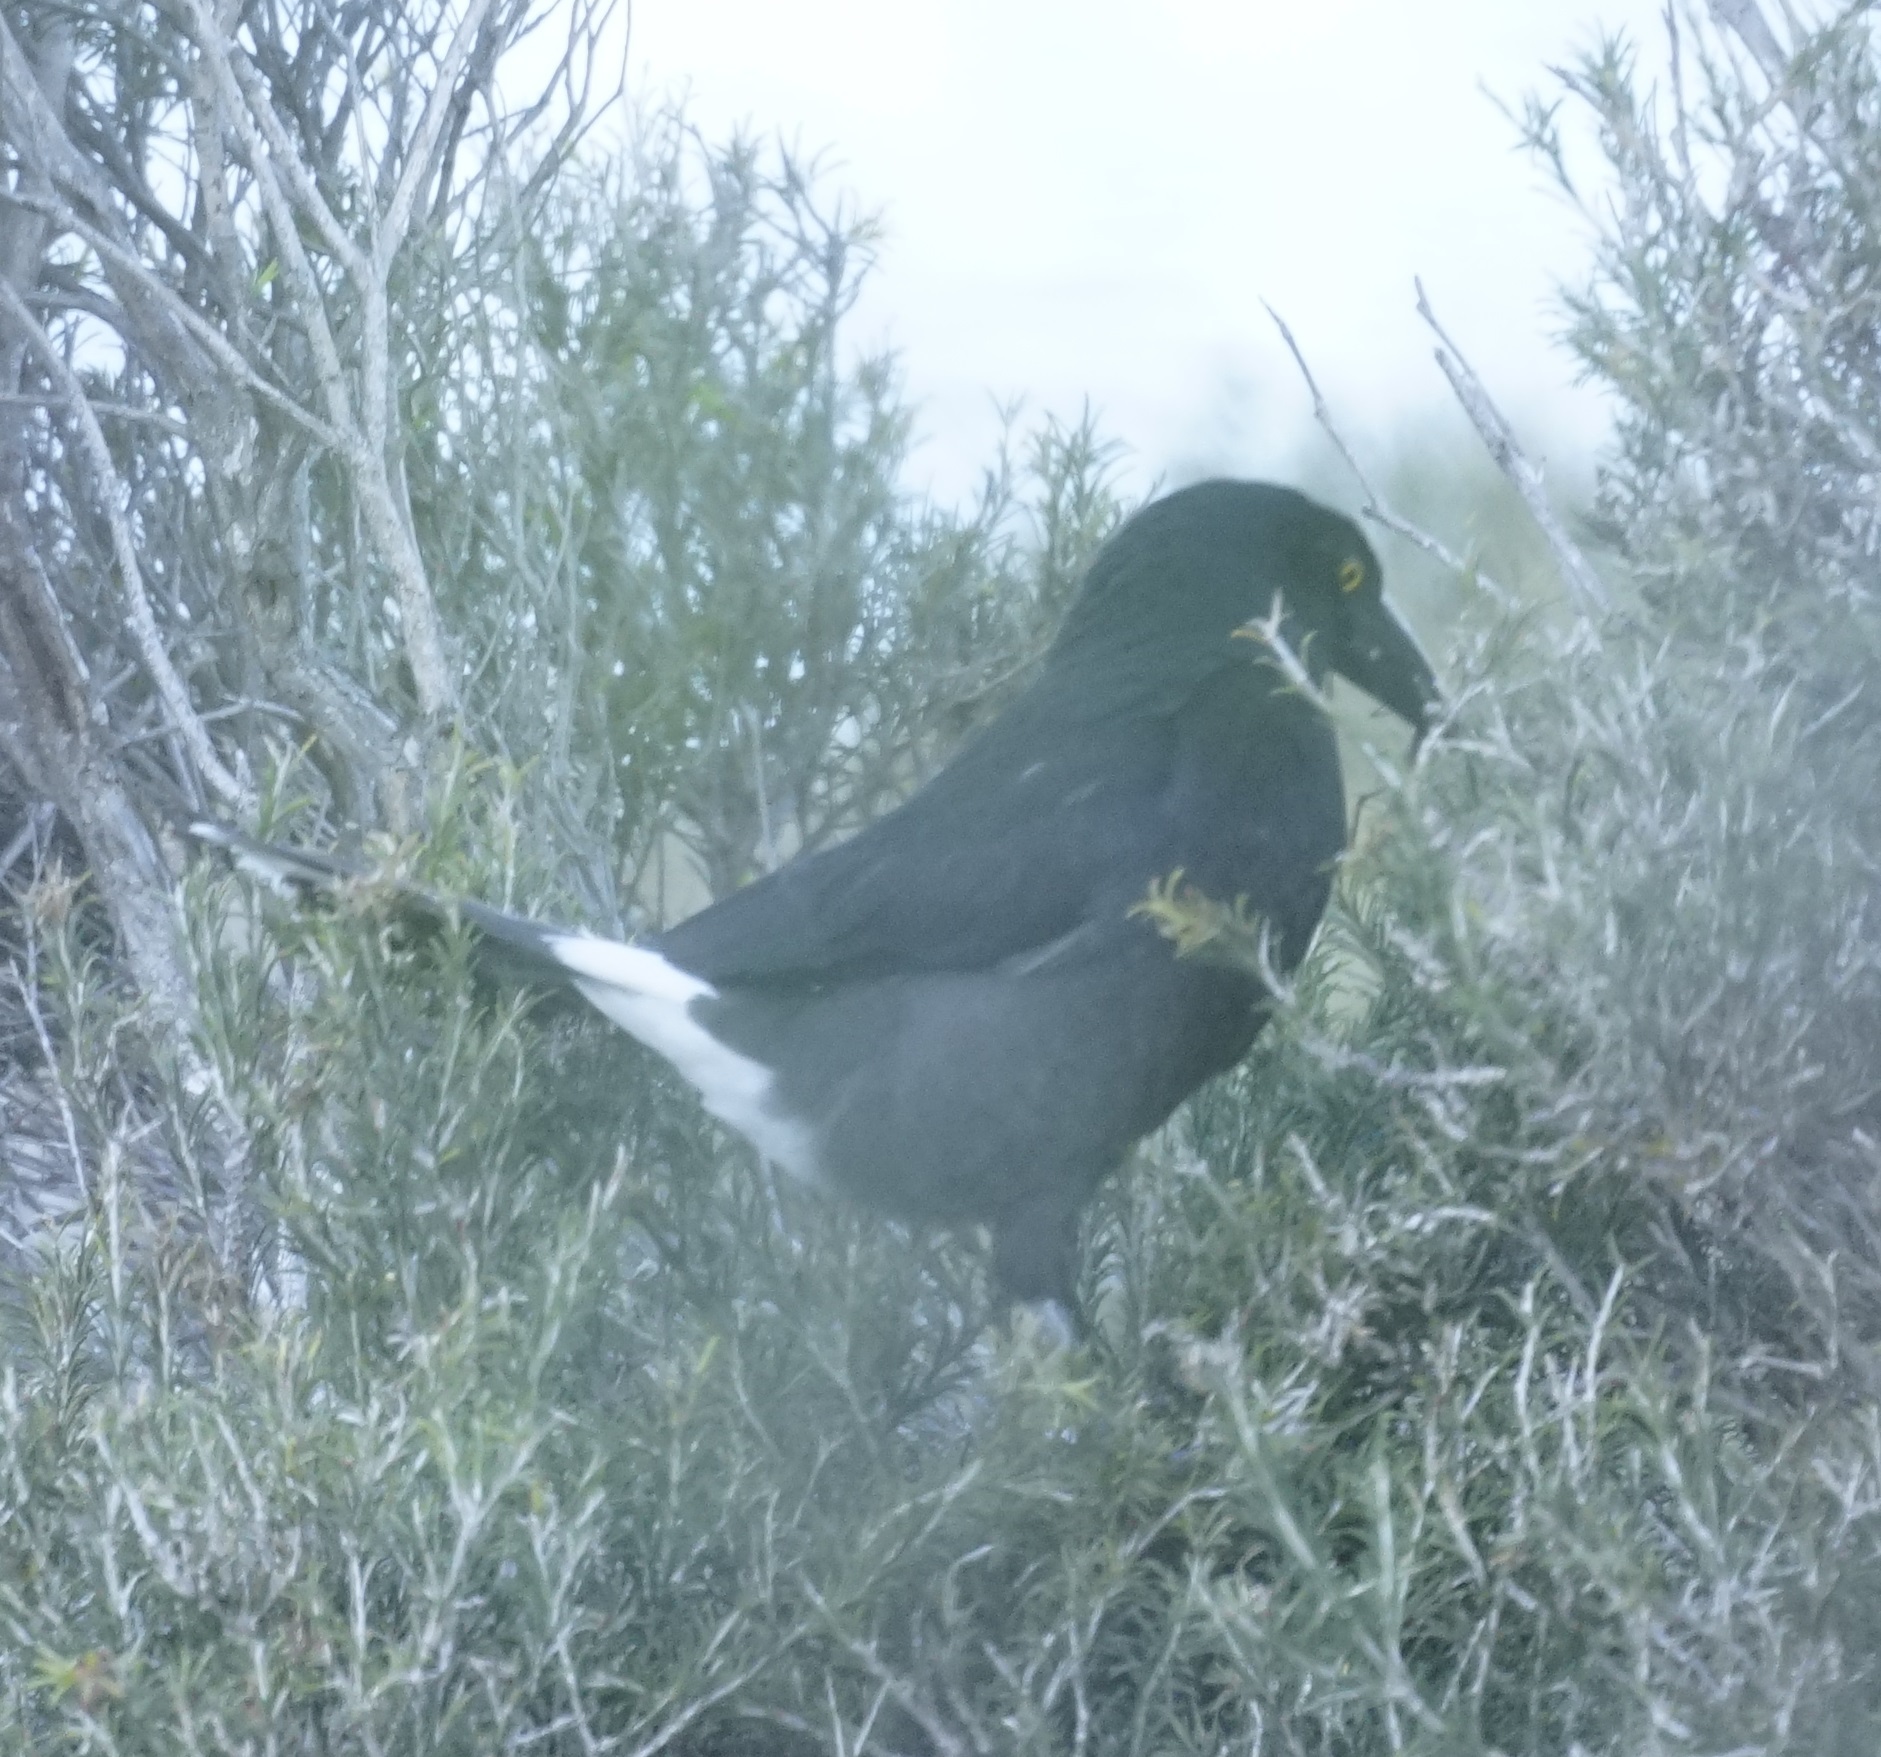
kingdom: Animalia
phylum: Chordata
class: Aves
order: Passeriformes
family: Cracticidae
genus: Strepera
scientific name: Strepera graculina
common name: Pied currawong
